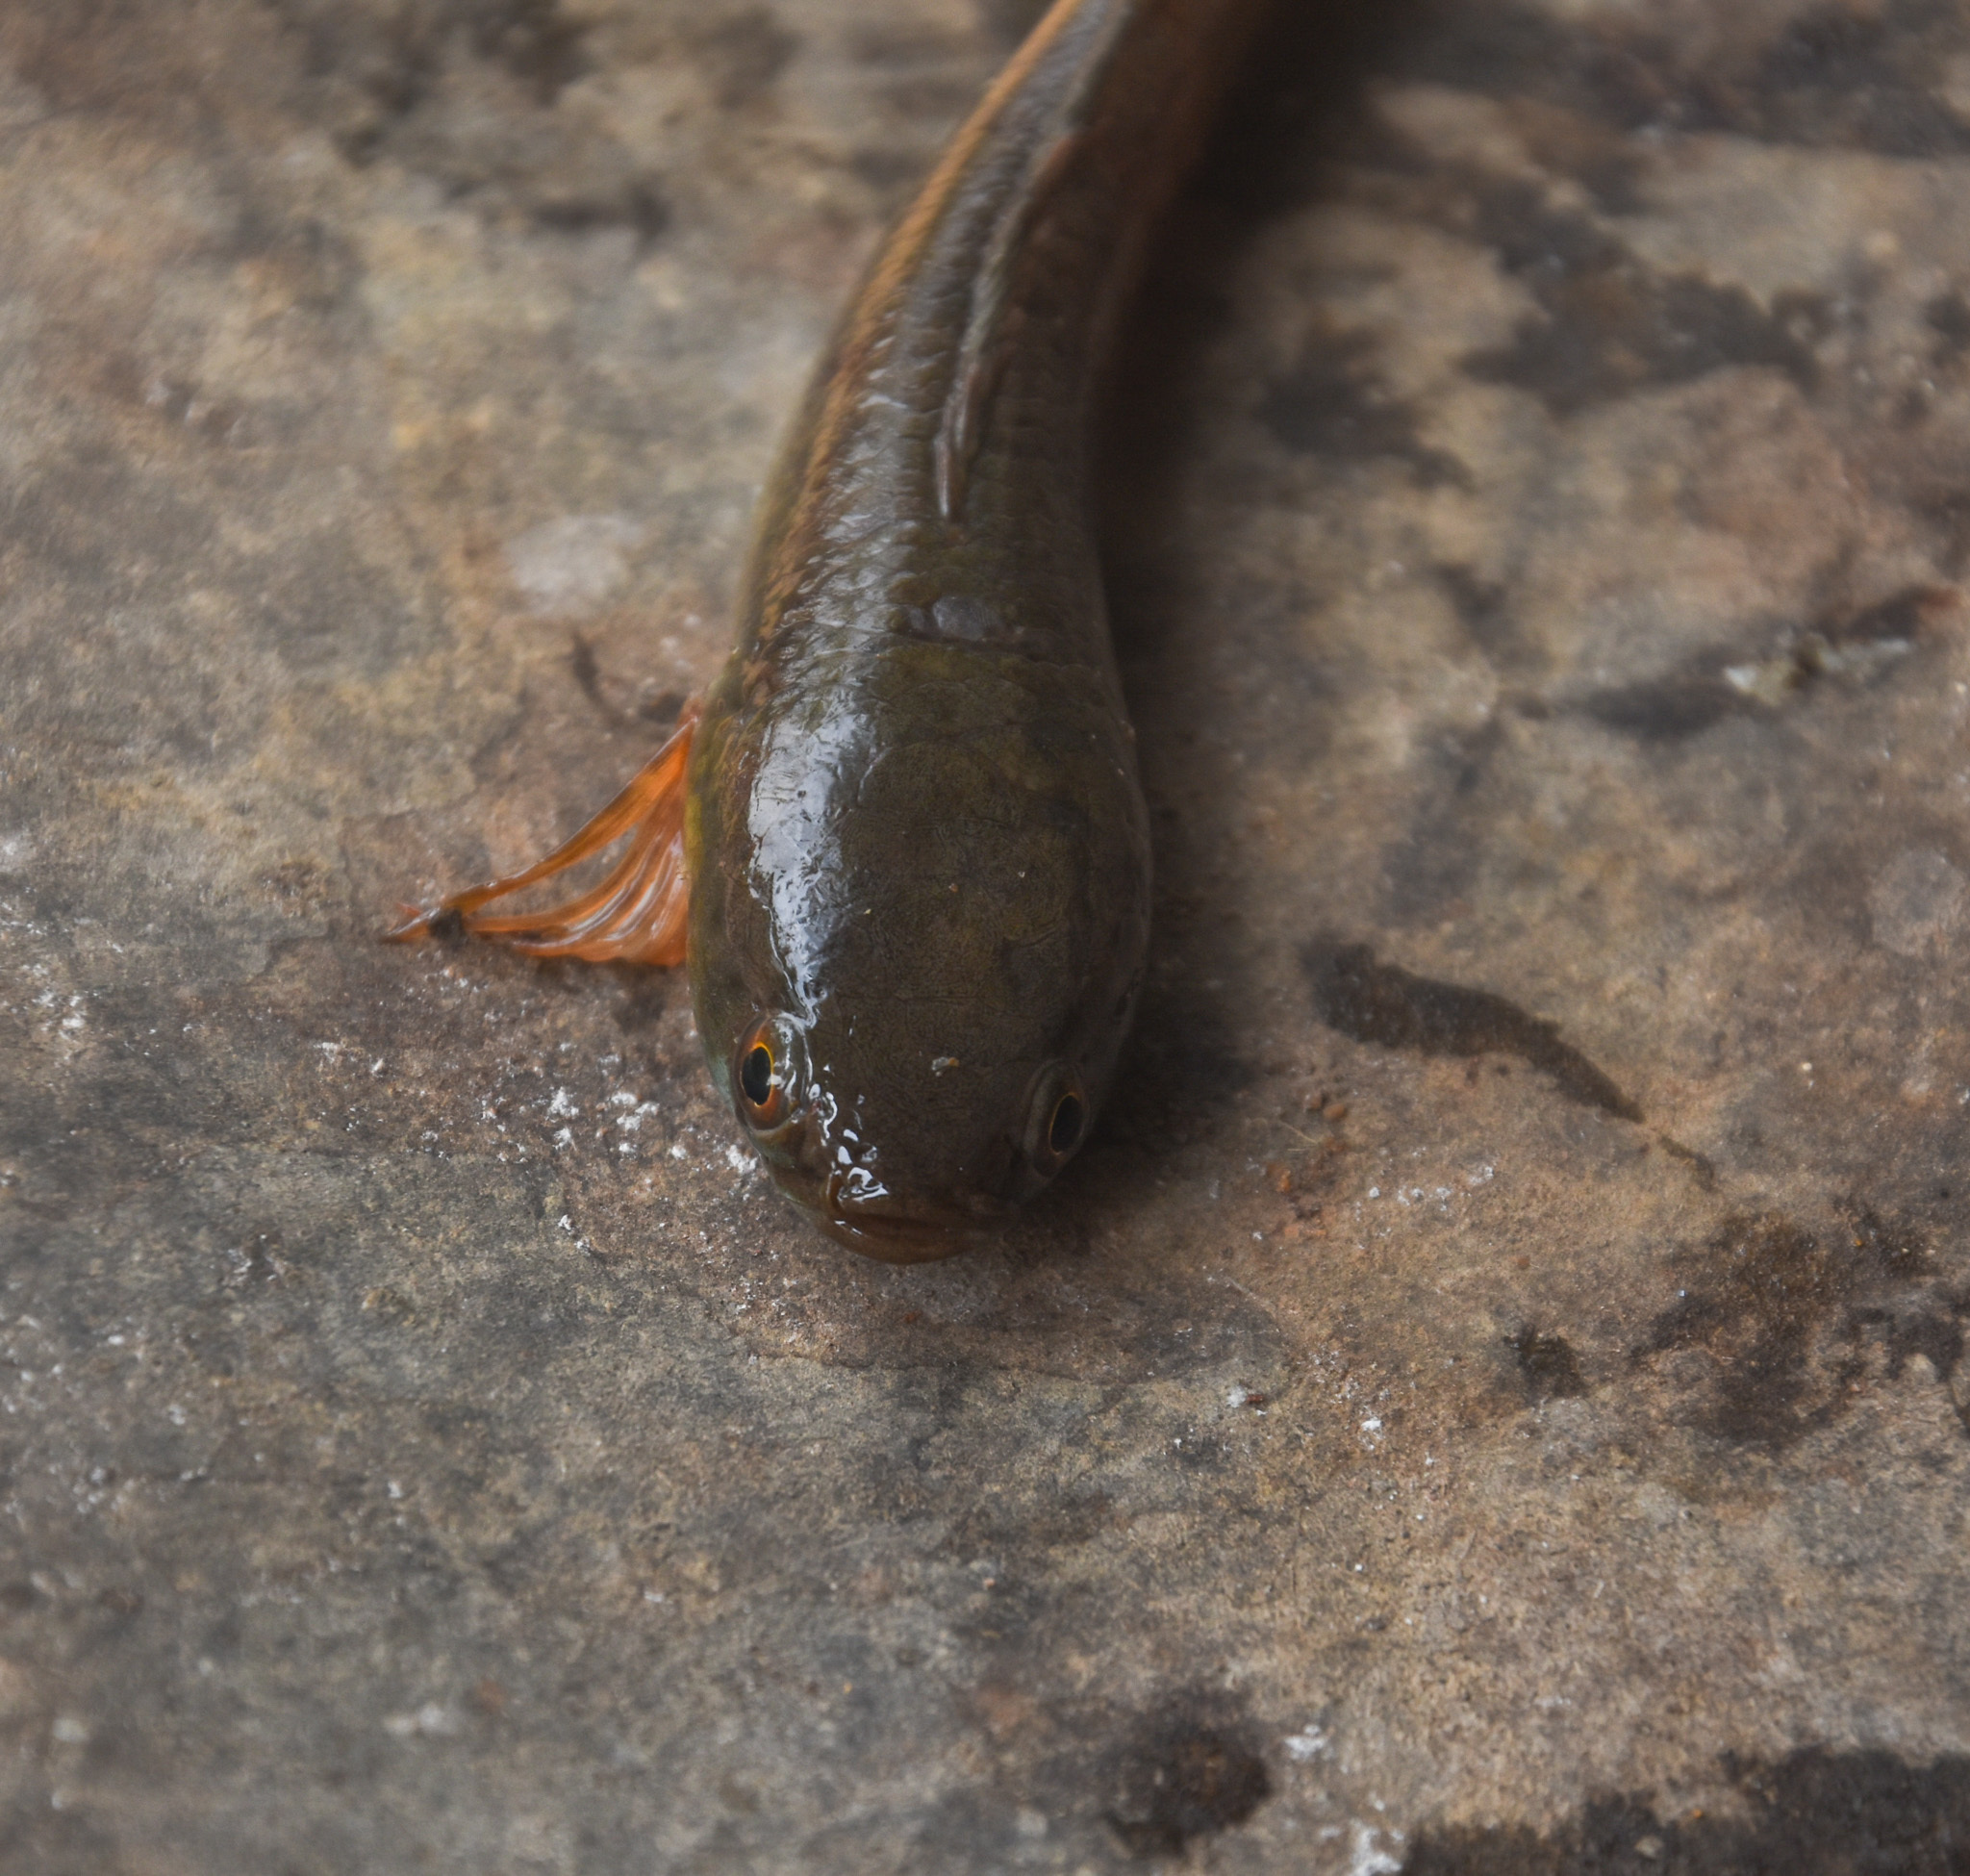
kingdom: Animalia
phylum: Chordata
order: Perciformes
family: Channidae
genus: Channa
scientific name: Channa gachua
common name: Dwarf snakehead
